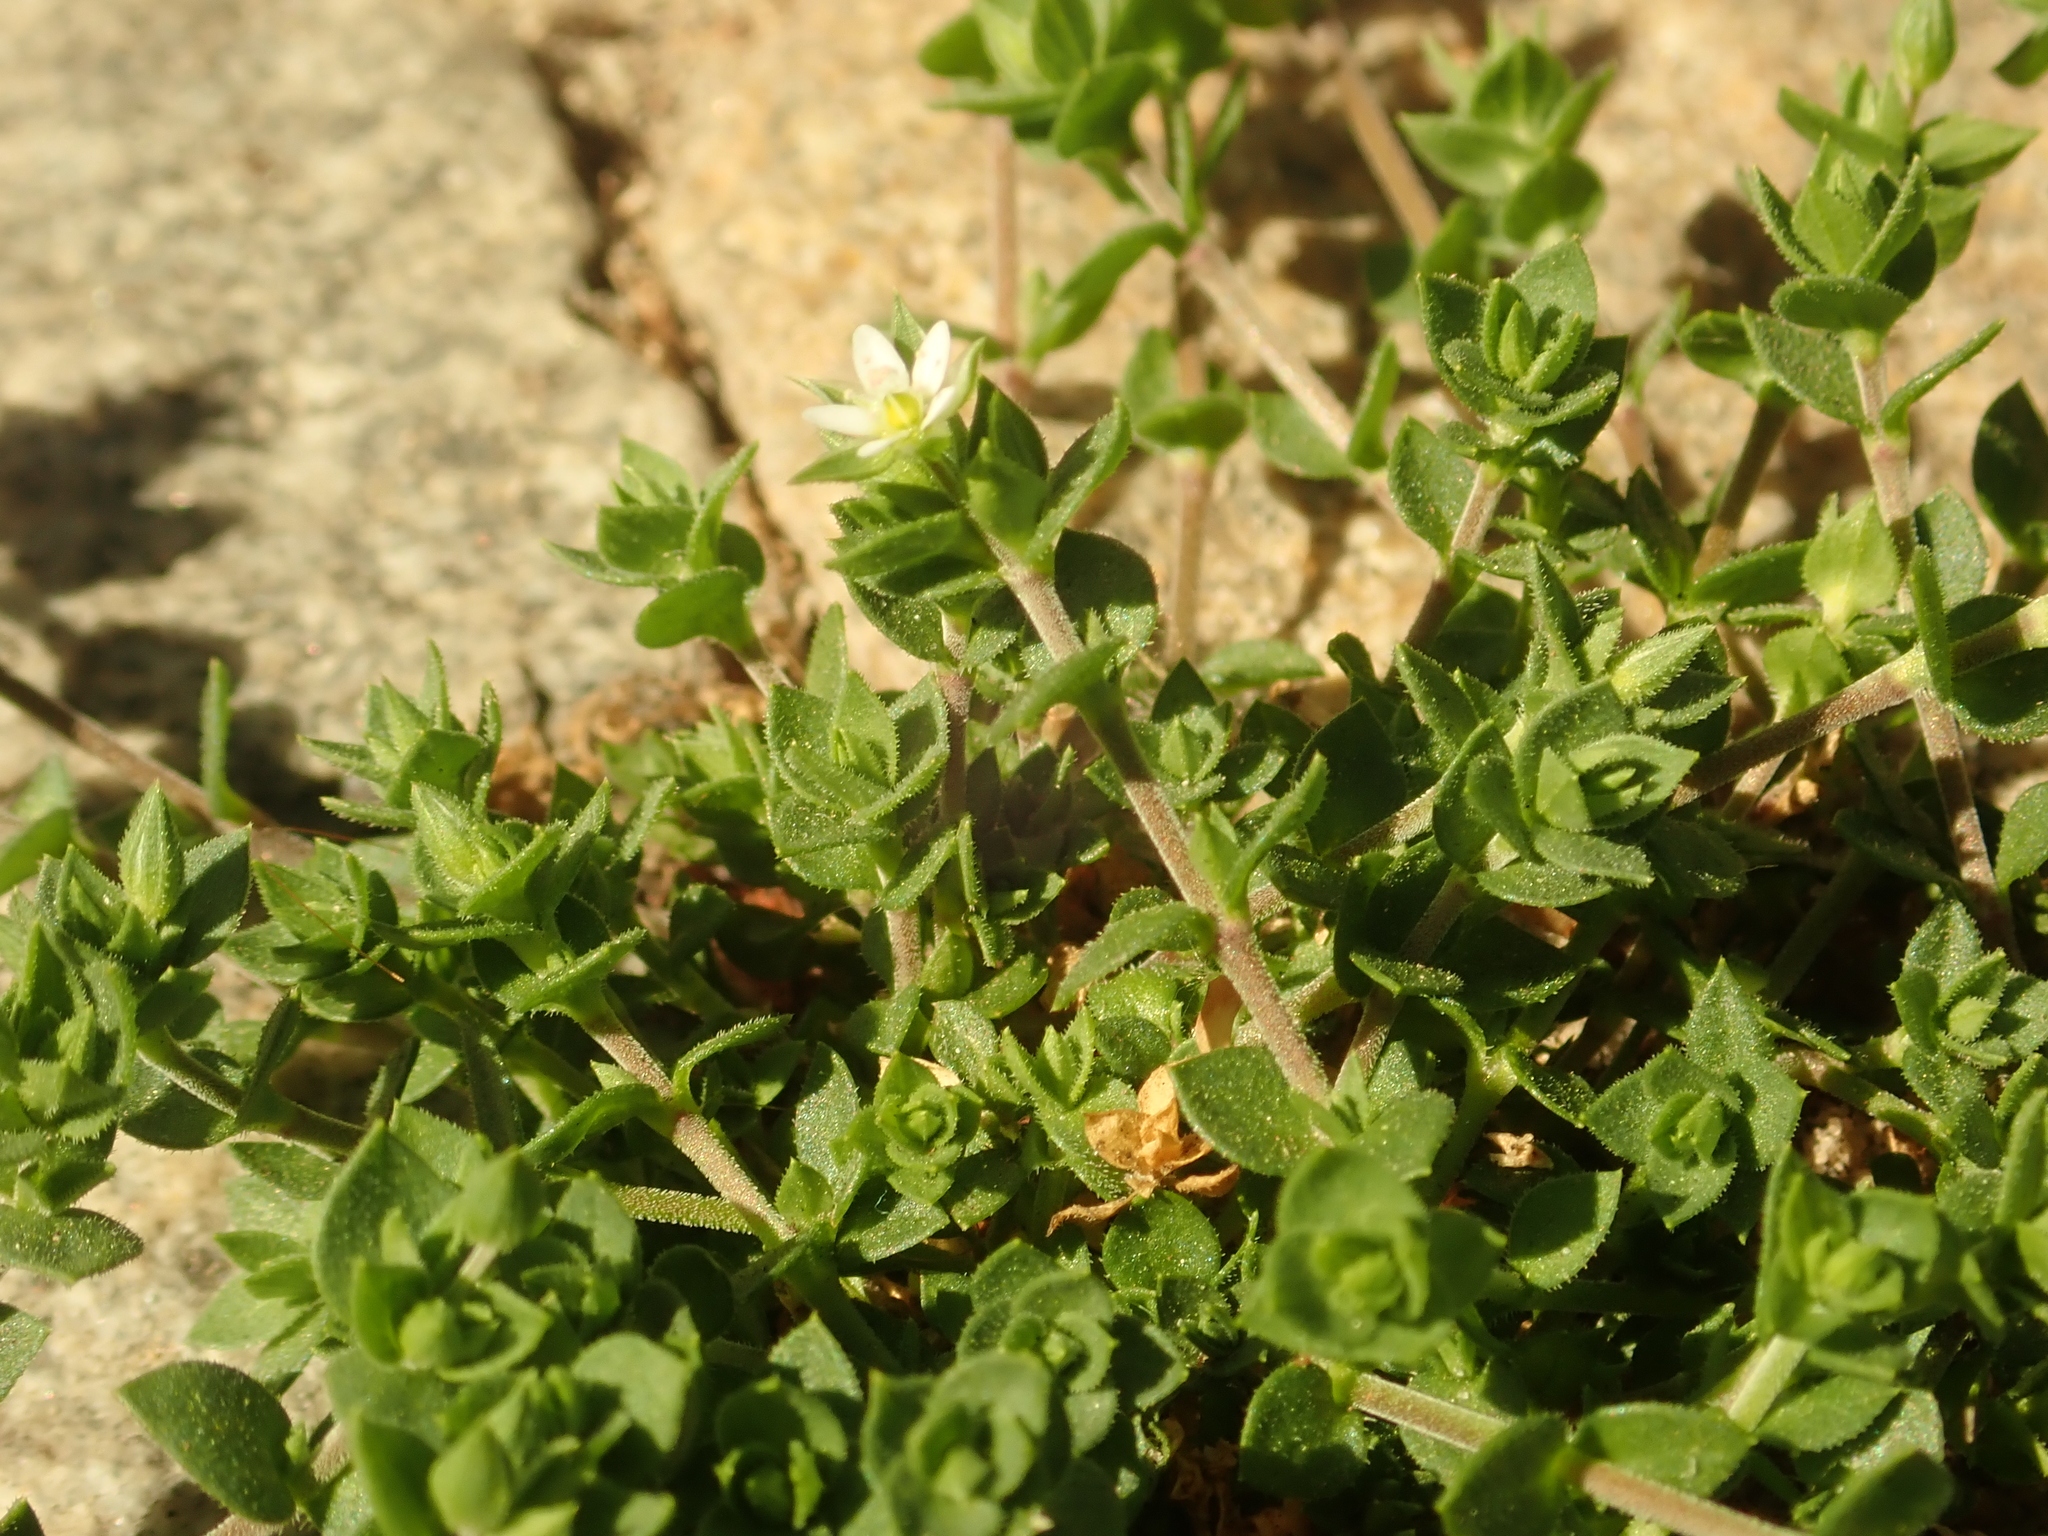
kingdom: Plantae
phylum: Tracheophyta
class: Magnoliopsida
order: Caryophyllales
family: Caryophyllaceae
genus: Arenaria
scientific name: Arenaria serpyllifolia
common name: Thyme-leaved sandwort
